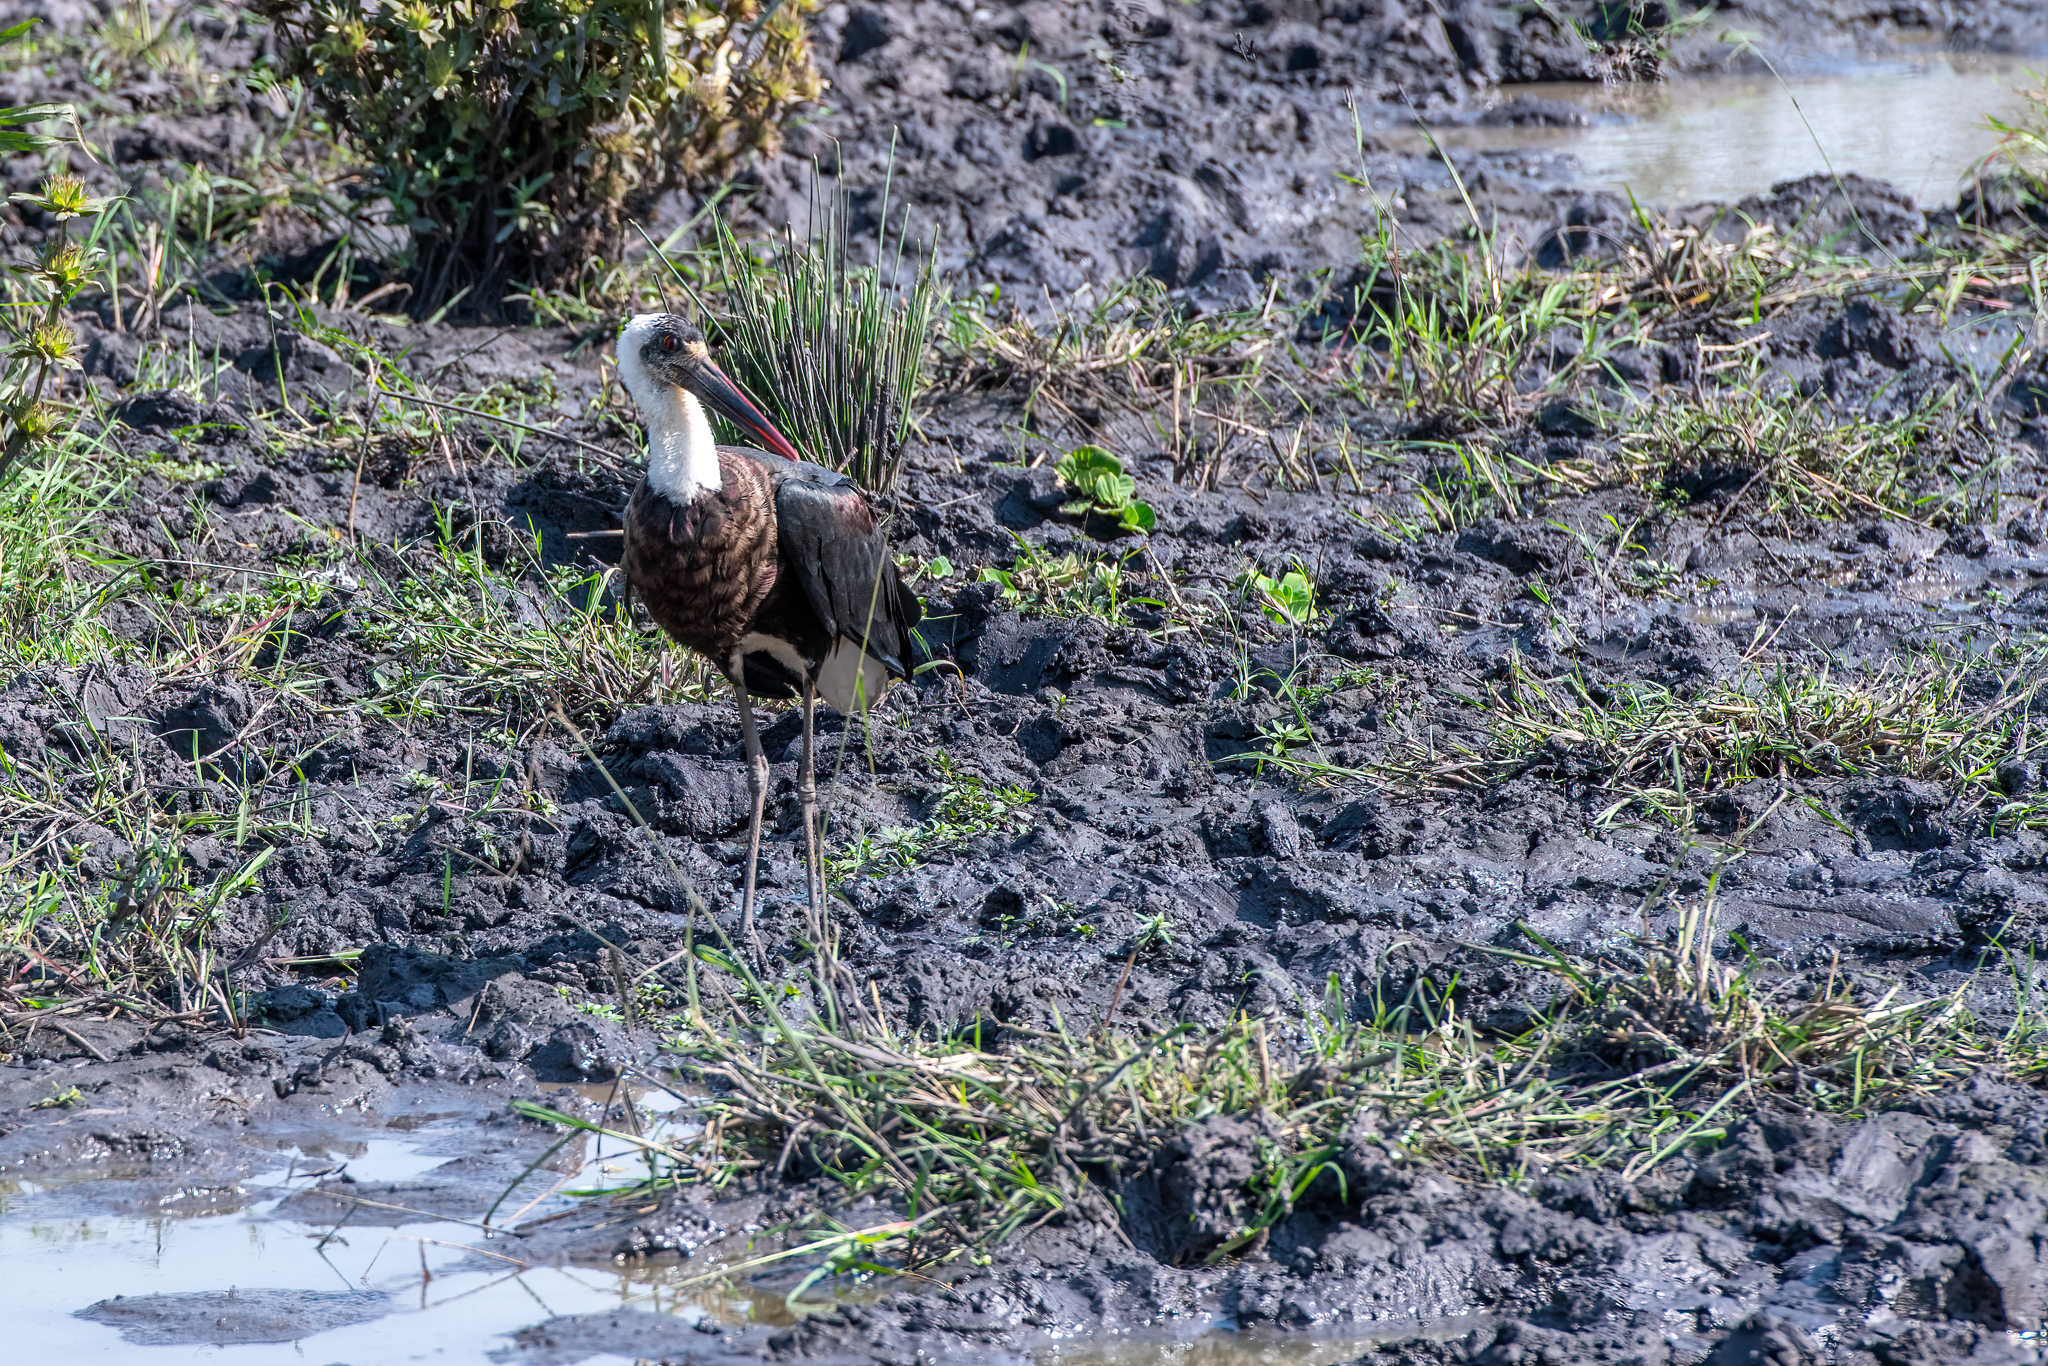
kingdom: Animalia
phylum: Chordata
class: Aves
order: Ciconiiformes
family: Ciconiidae
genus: Ciconia
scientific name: Ciconia microscelis
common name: African woollyneck
